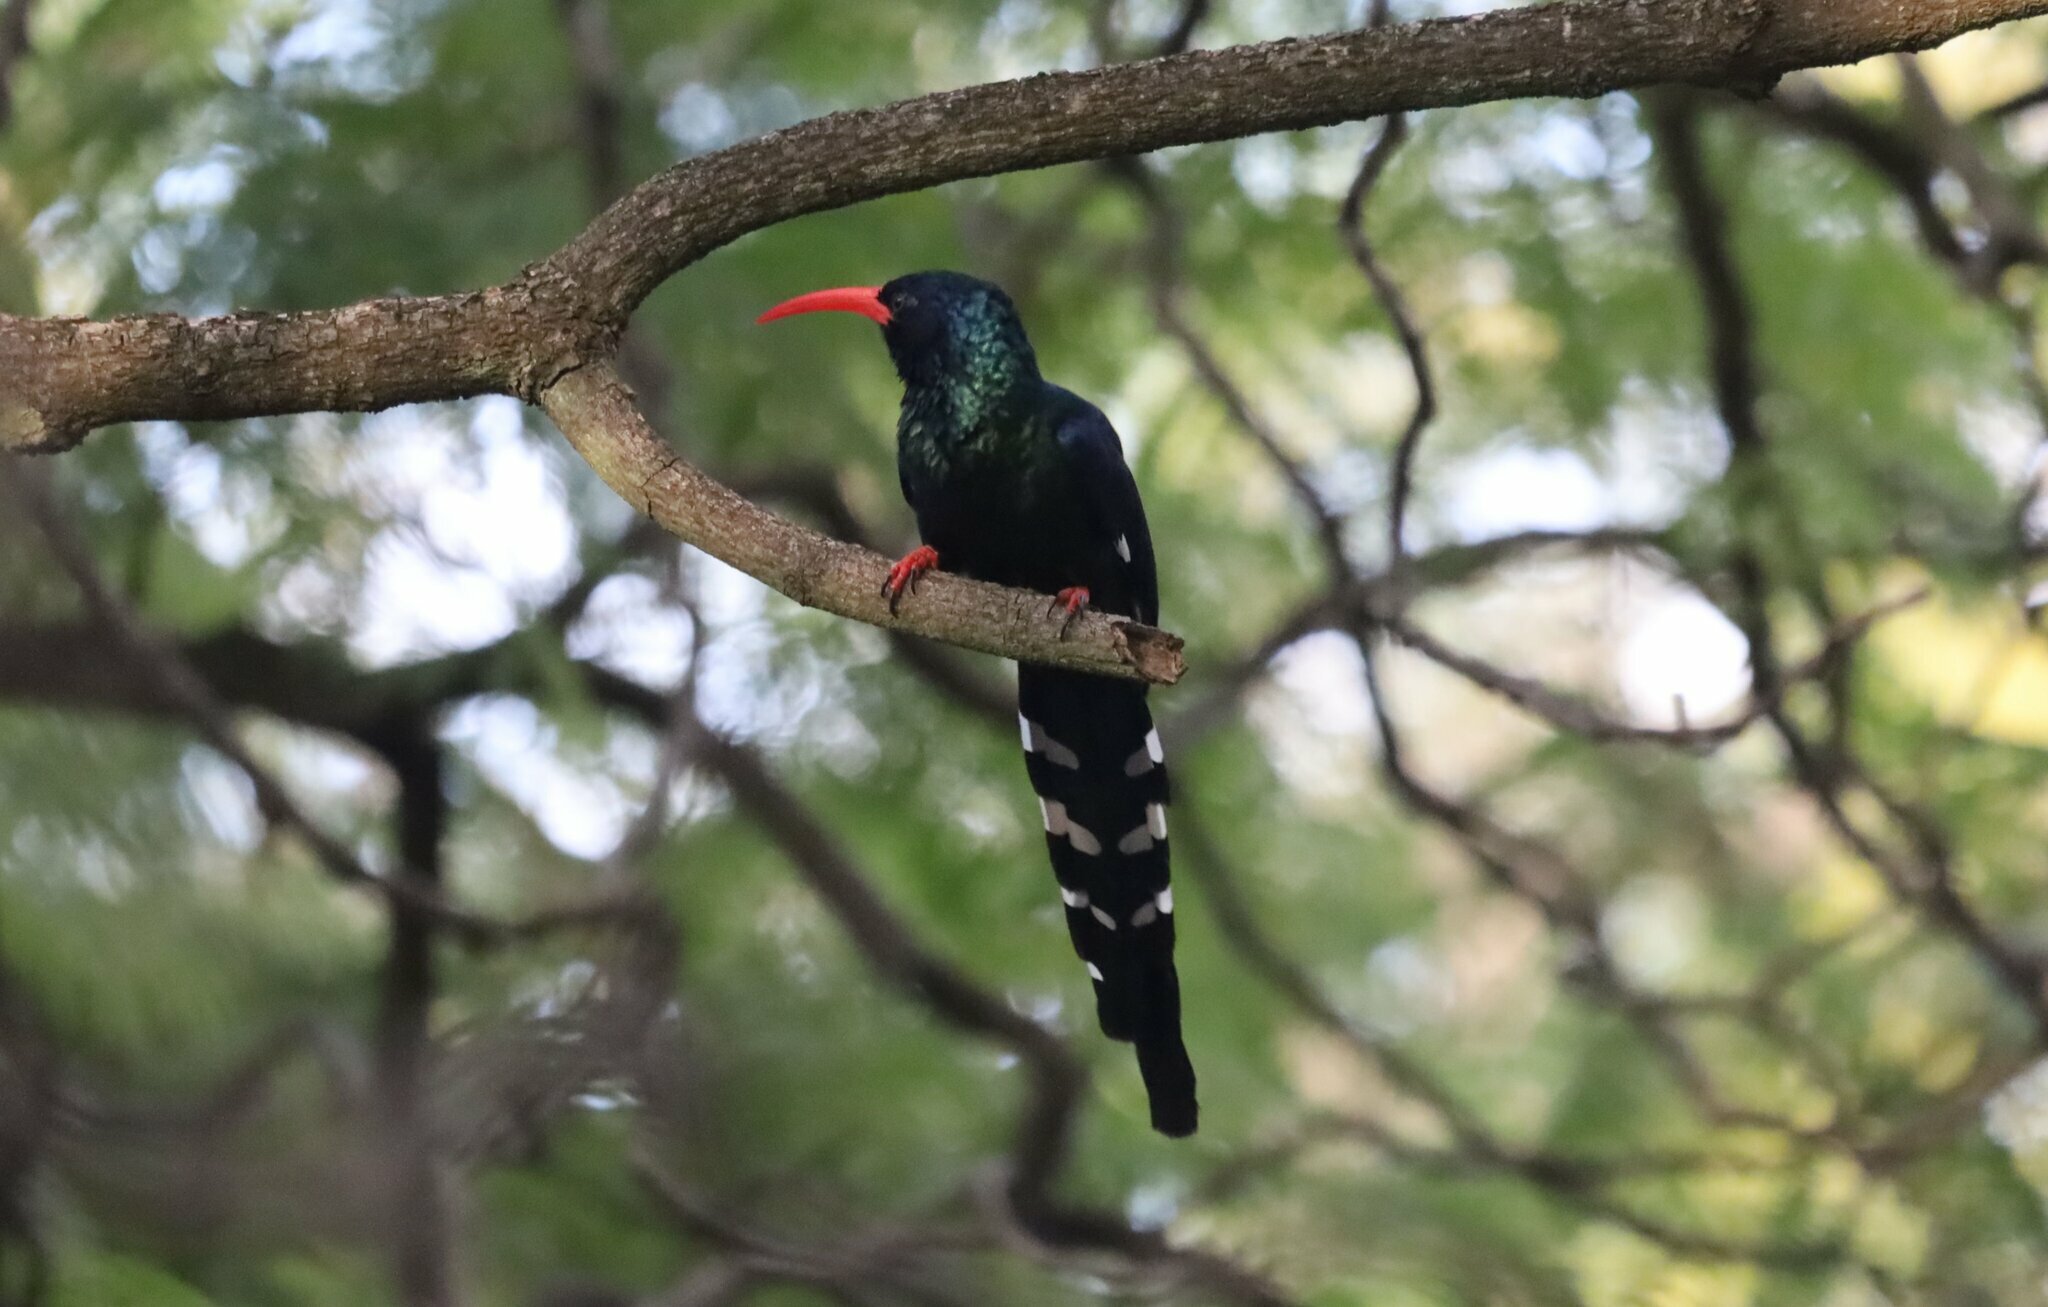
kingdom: Animalia
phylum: Chordata
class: Aves
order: Bucerotiformes
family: Phoeniculidae
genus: Phoeniculus
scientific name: Phoeniculus purpureus
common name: Green woodhoopoe
